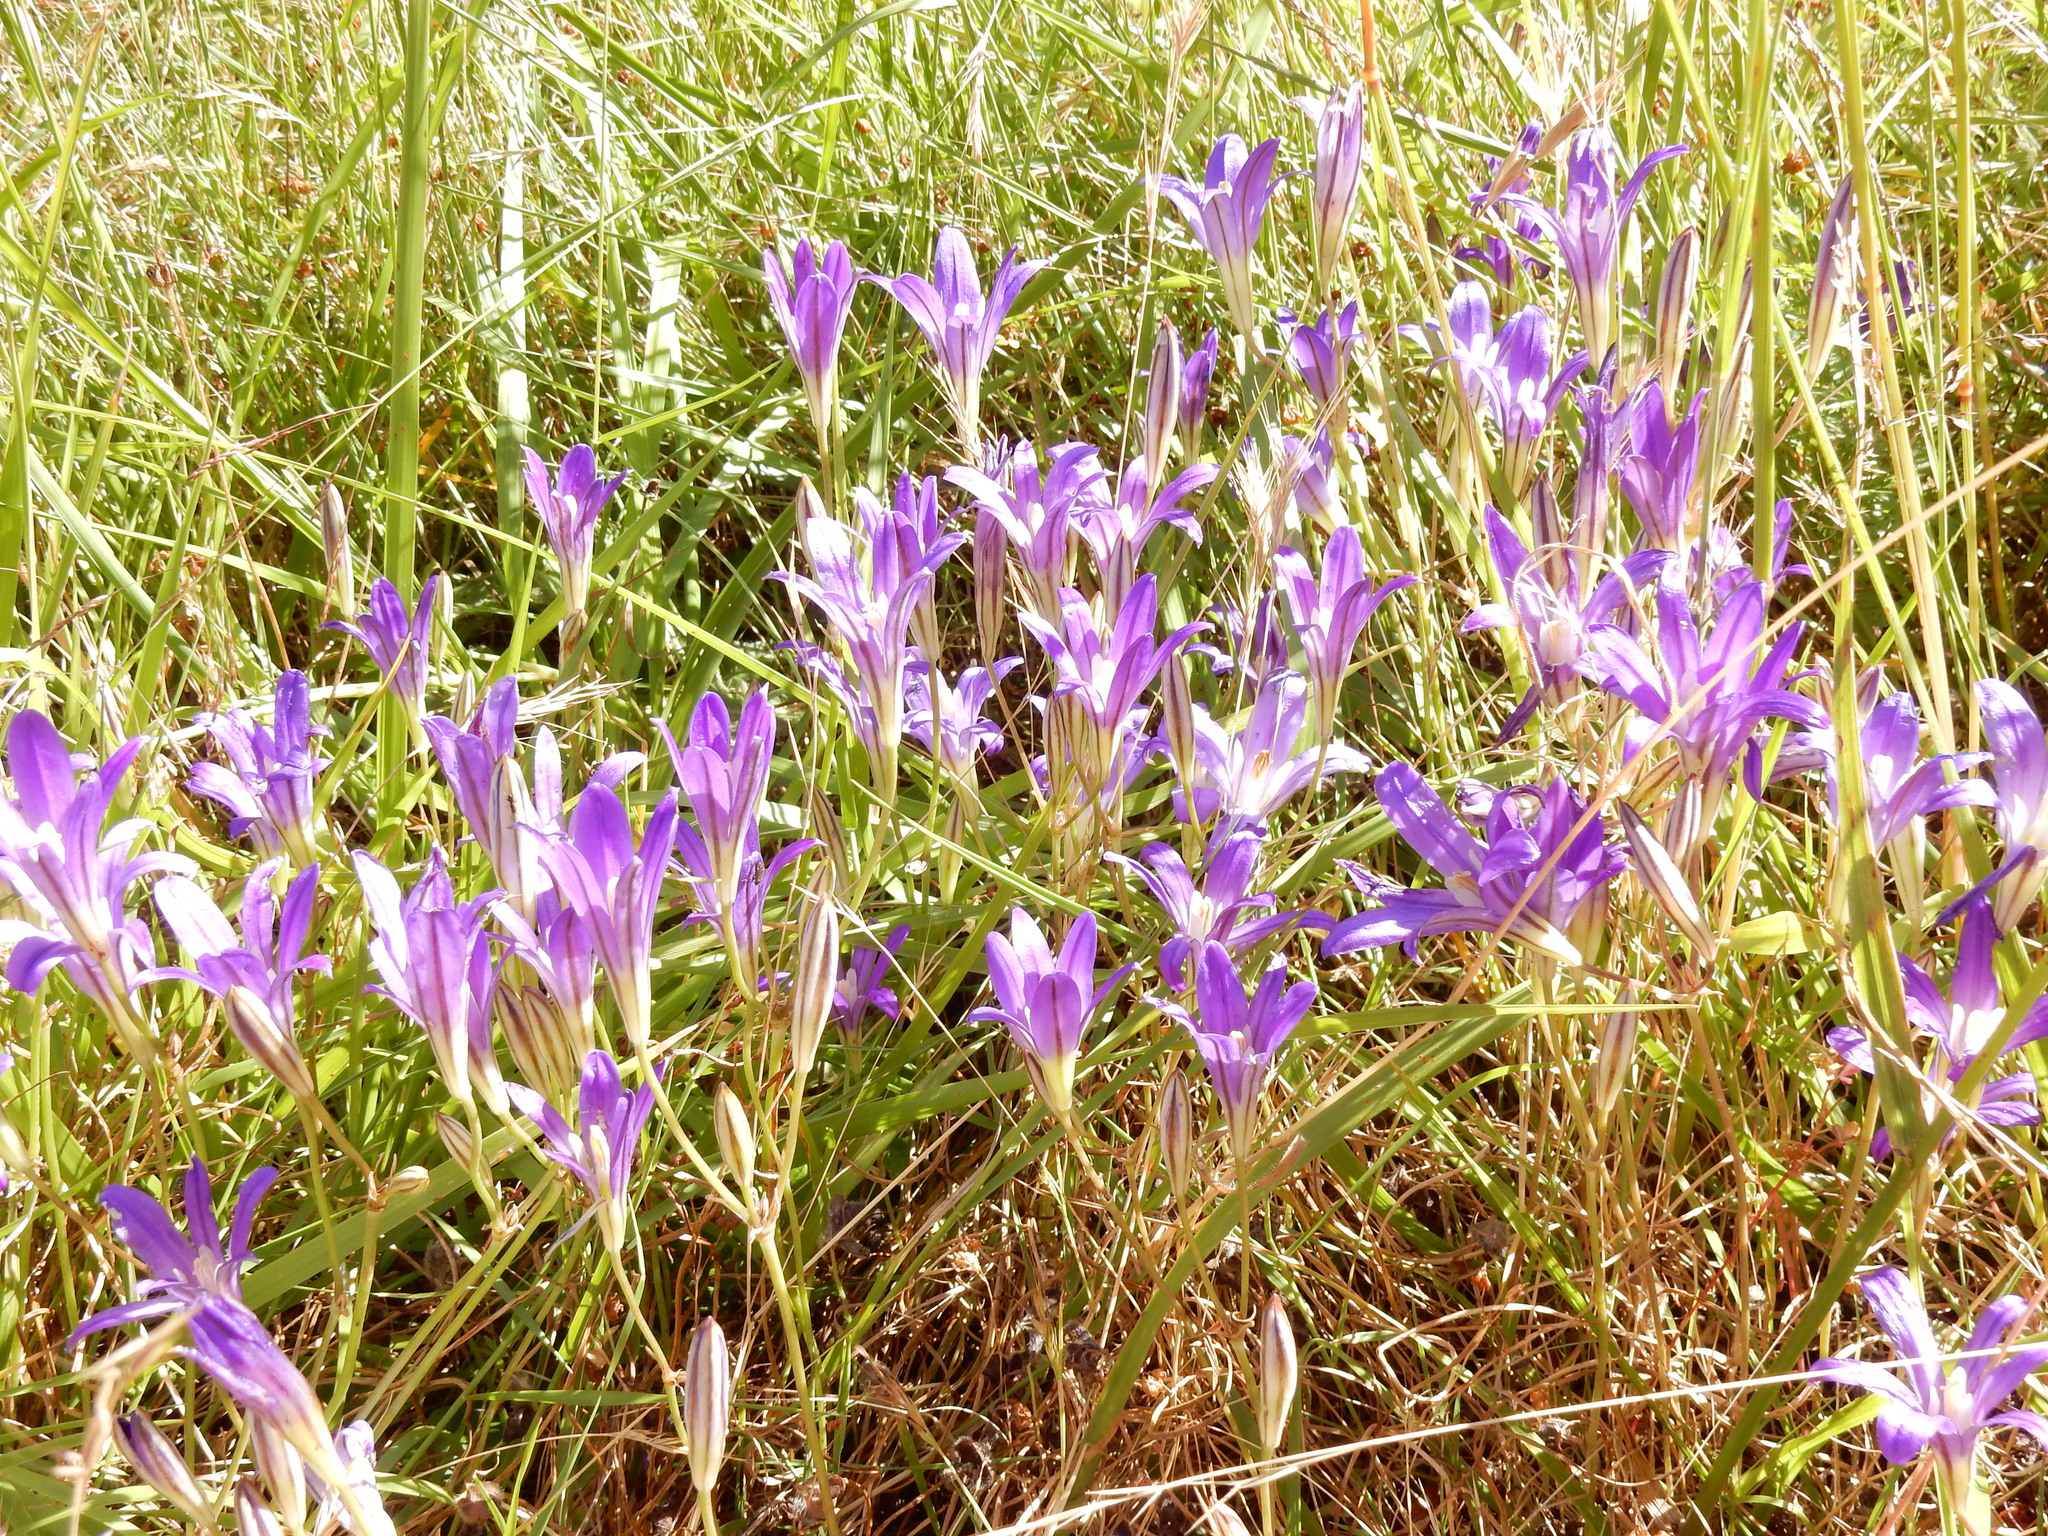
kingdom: Plantae
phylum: Tracheophyta
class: Liliopsida
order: Asparagales
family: Asparagaceae
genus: Brodiaea
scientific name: Brodiaea elegans
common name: Elegant cluster-lily
